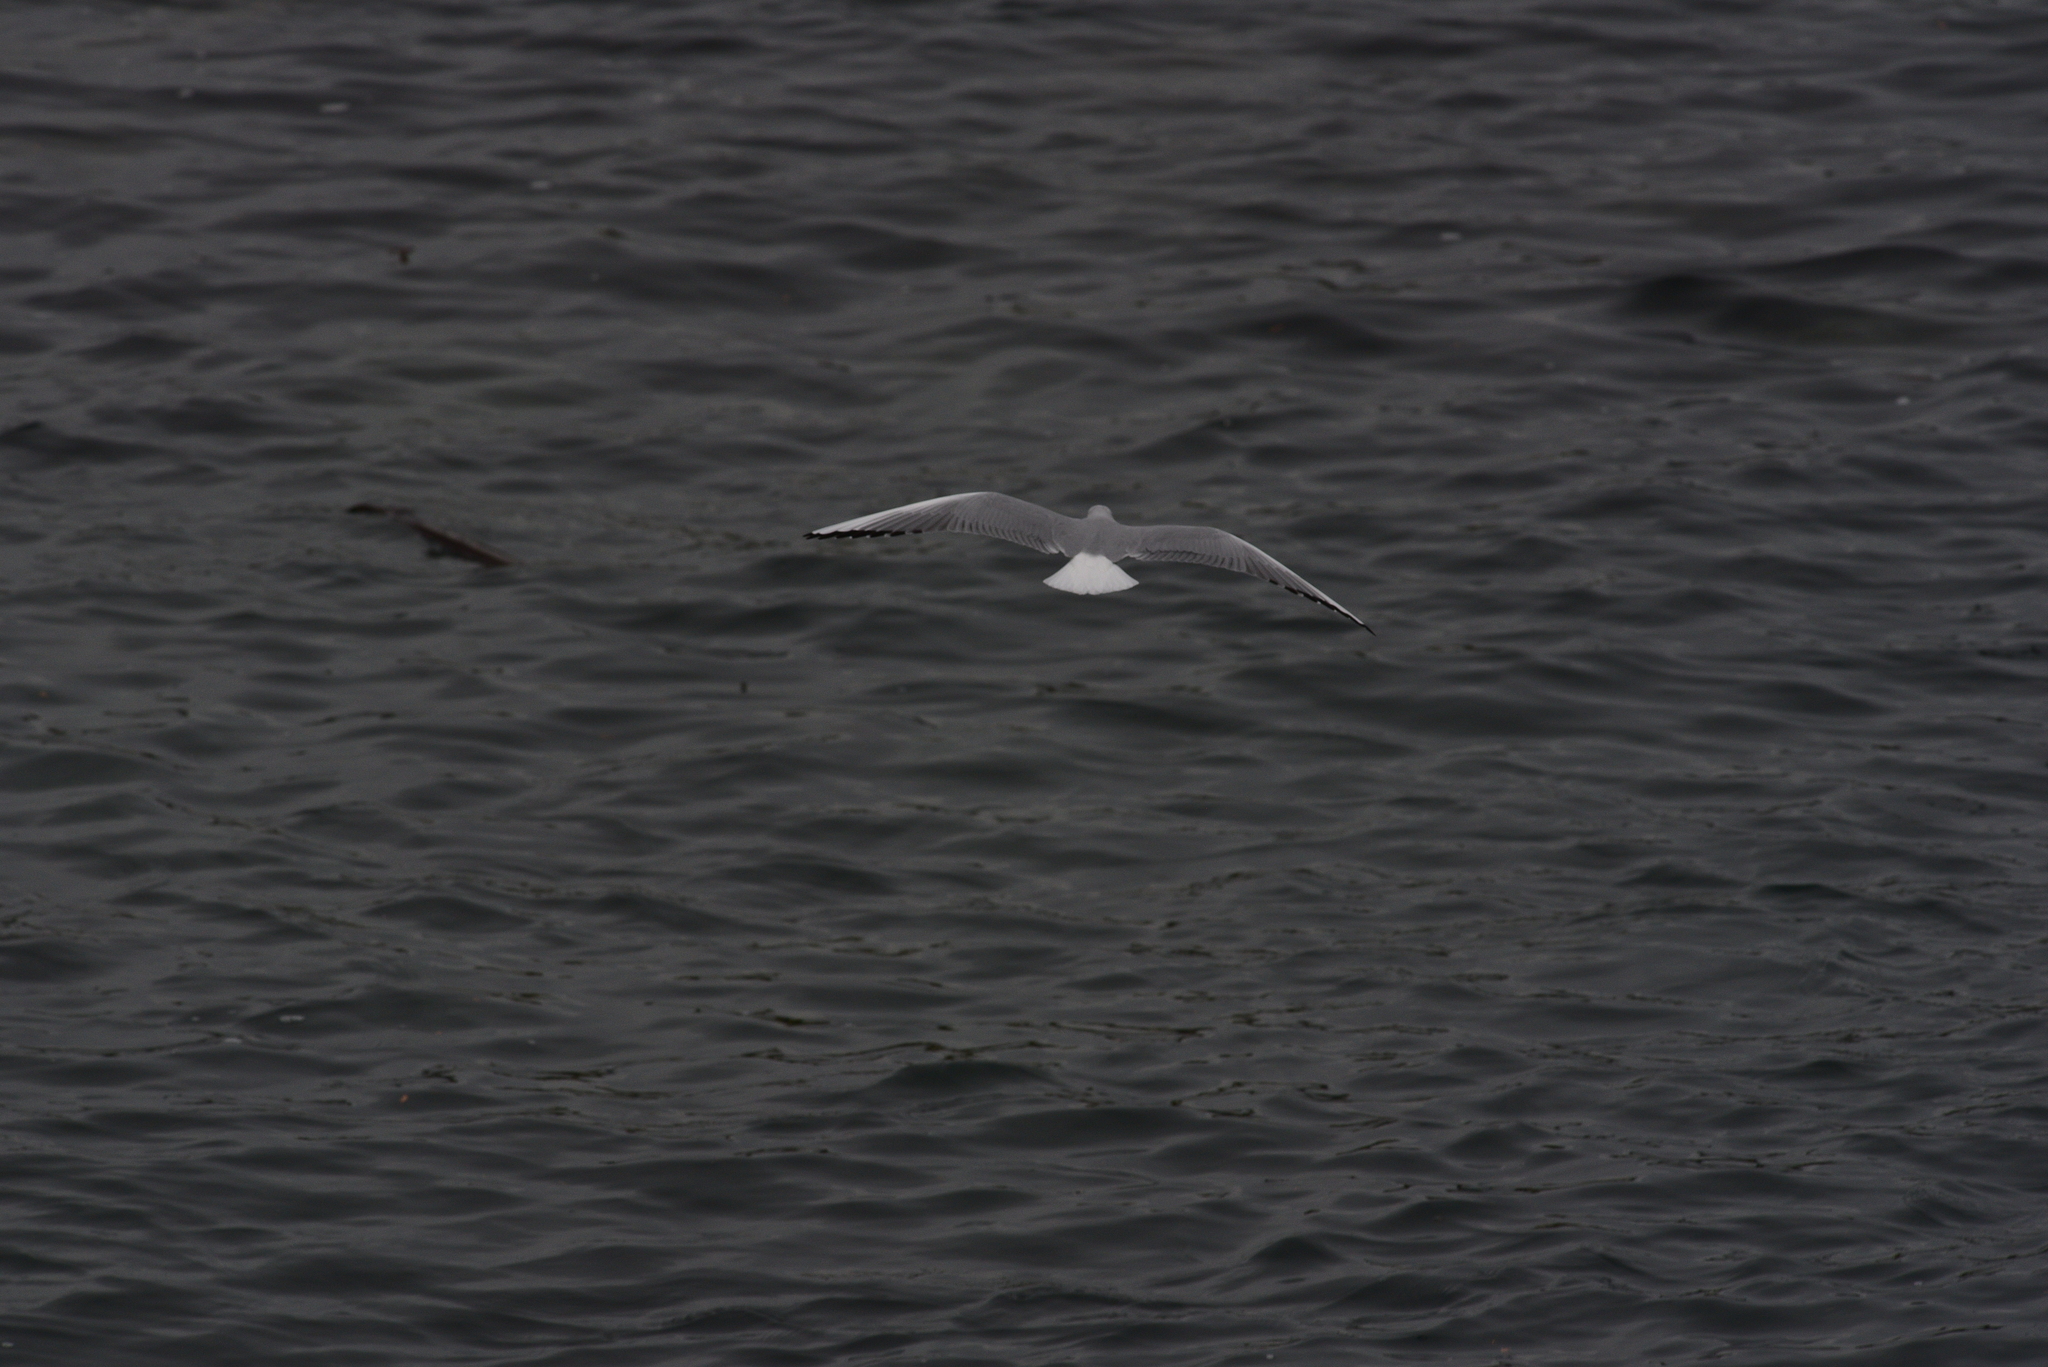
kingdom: Animalia
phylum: Chordata
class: Aves
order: Charadriiformes
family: Laridae
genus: Chroicocephalus
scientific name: Chroicocephalus philadelphia
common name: Bonaparte's gull
